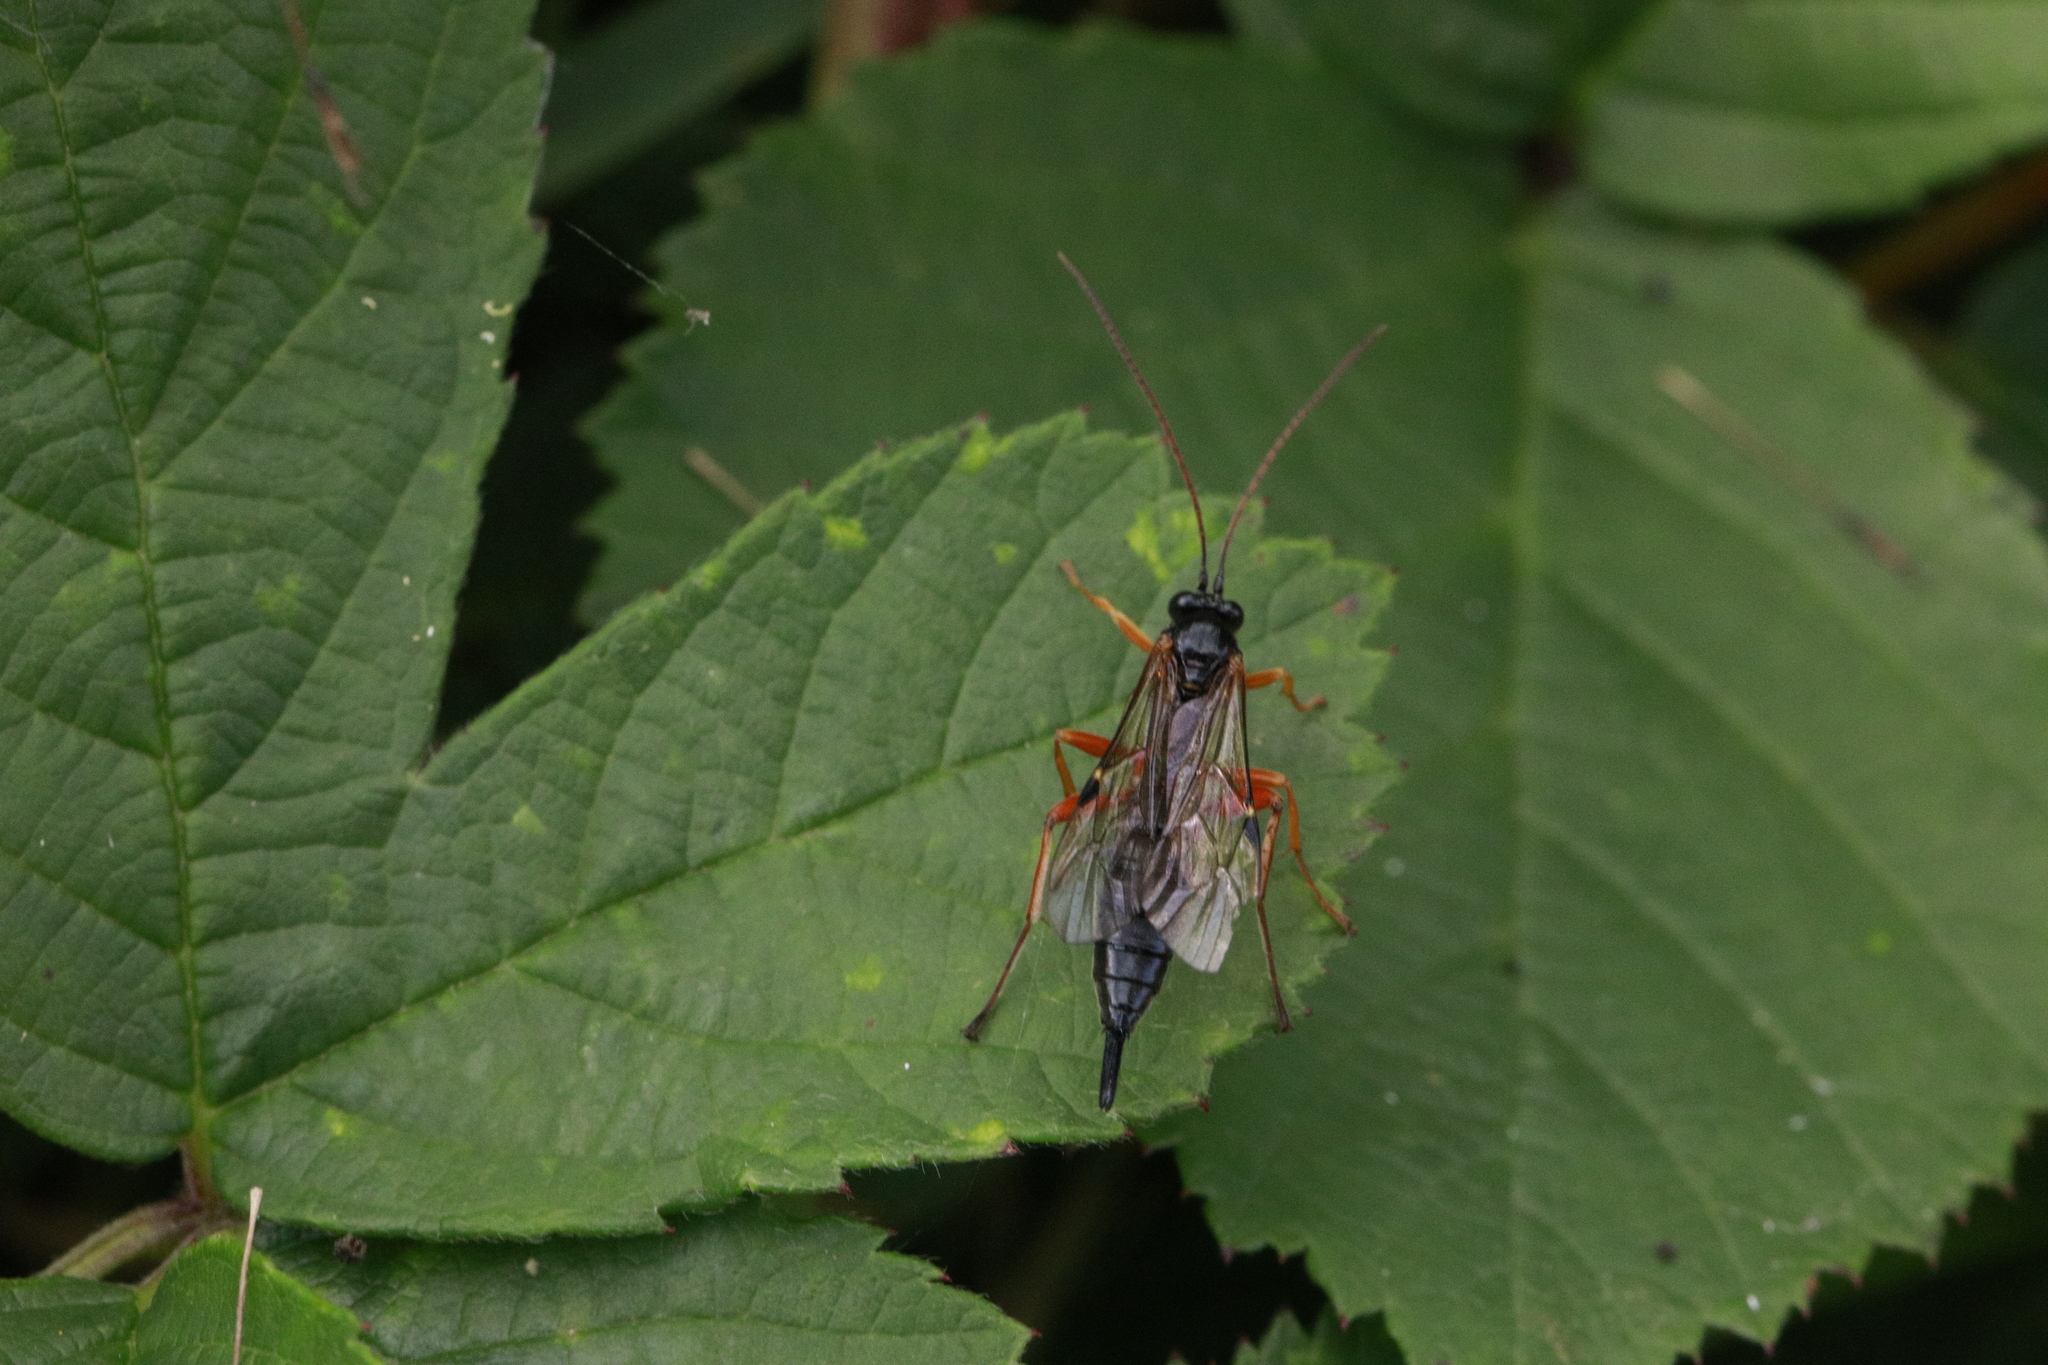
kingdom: Animalia
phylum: Arthropoda
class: Insecta
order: Hymenoptera
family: Ichneumonidae
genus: Apechthis
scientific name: Apechthis compunctor
